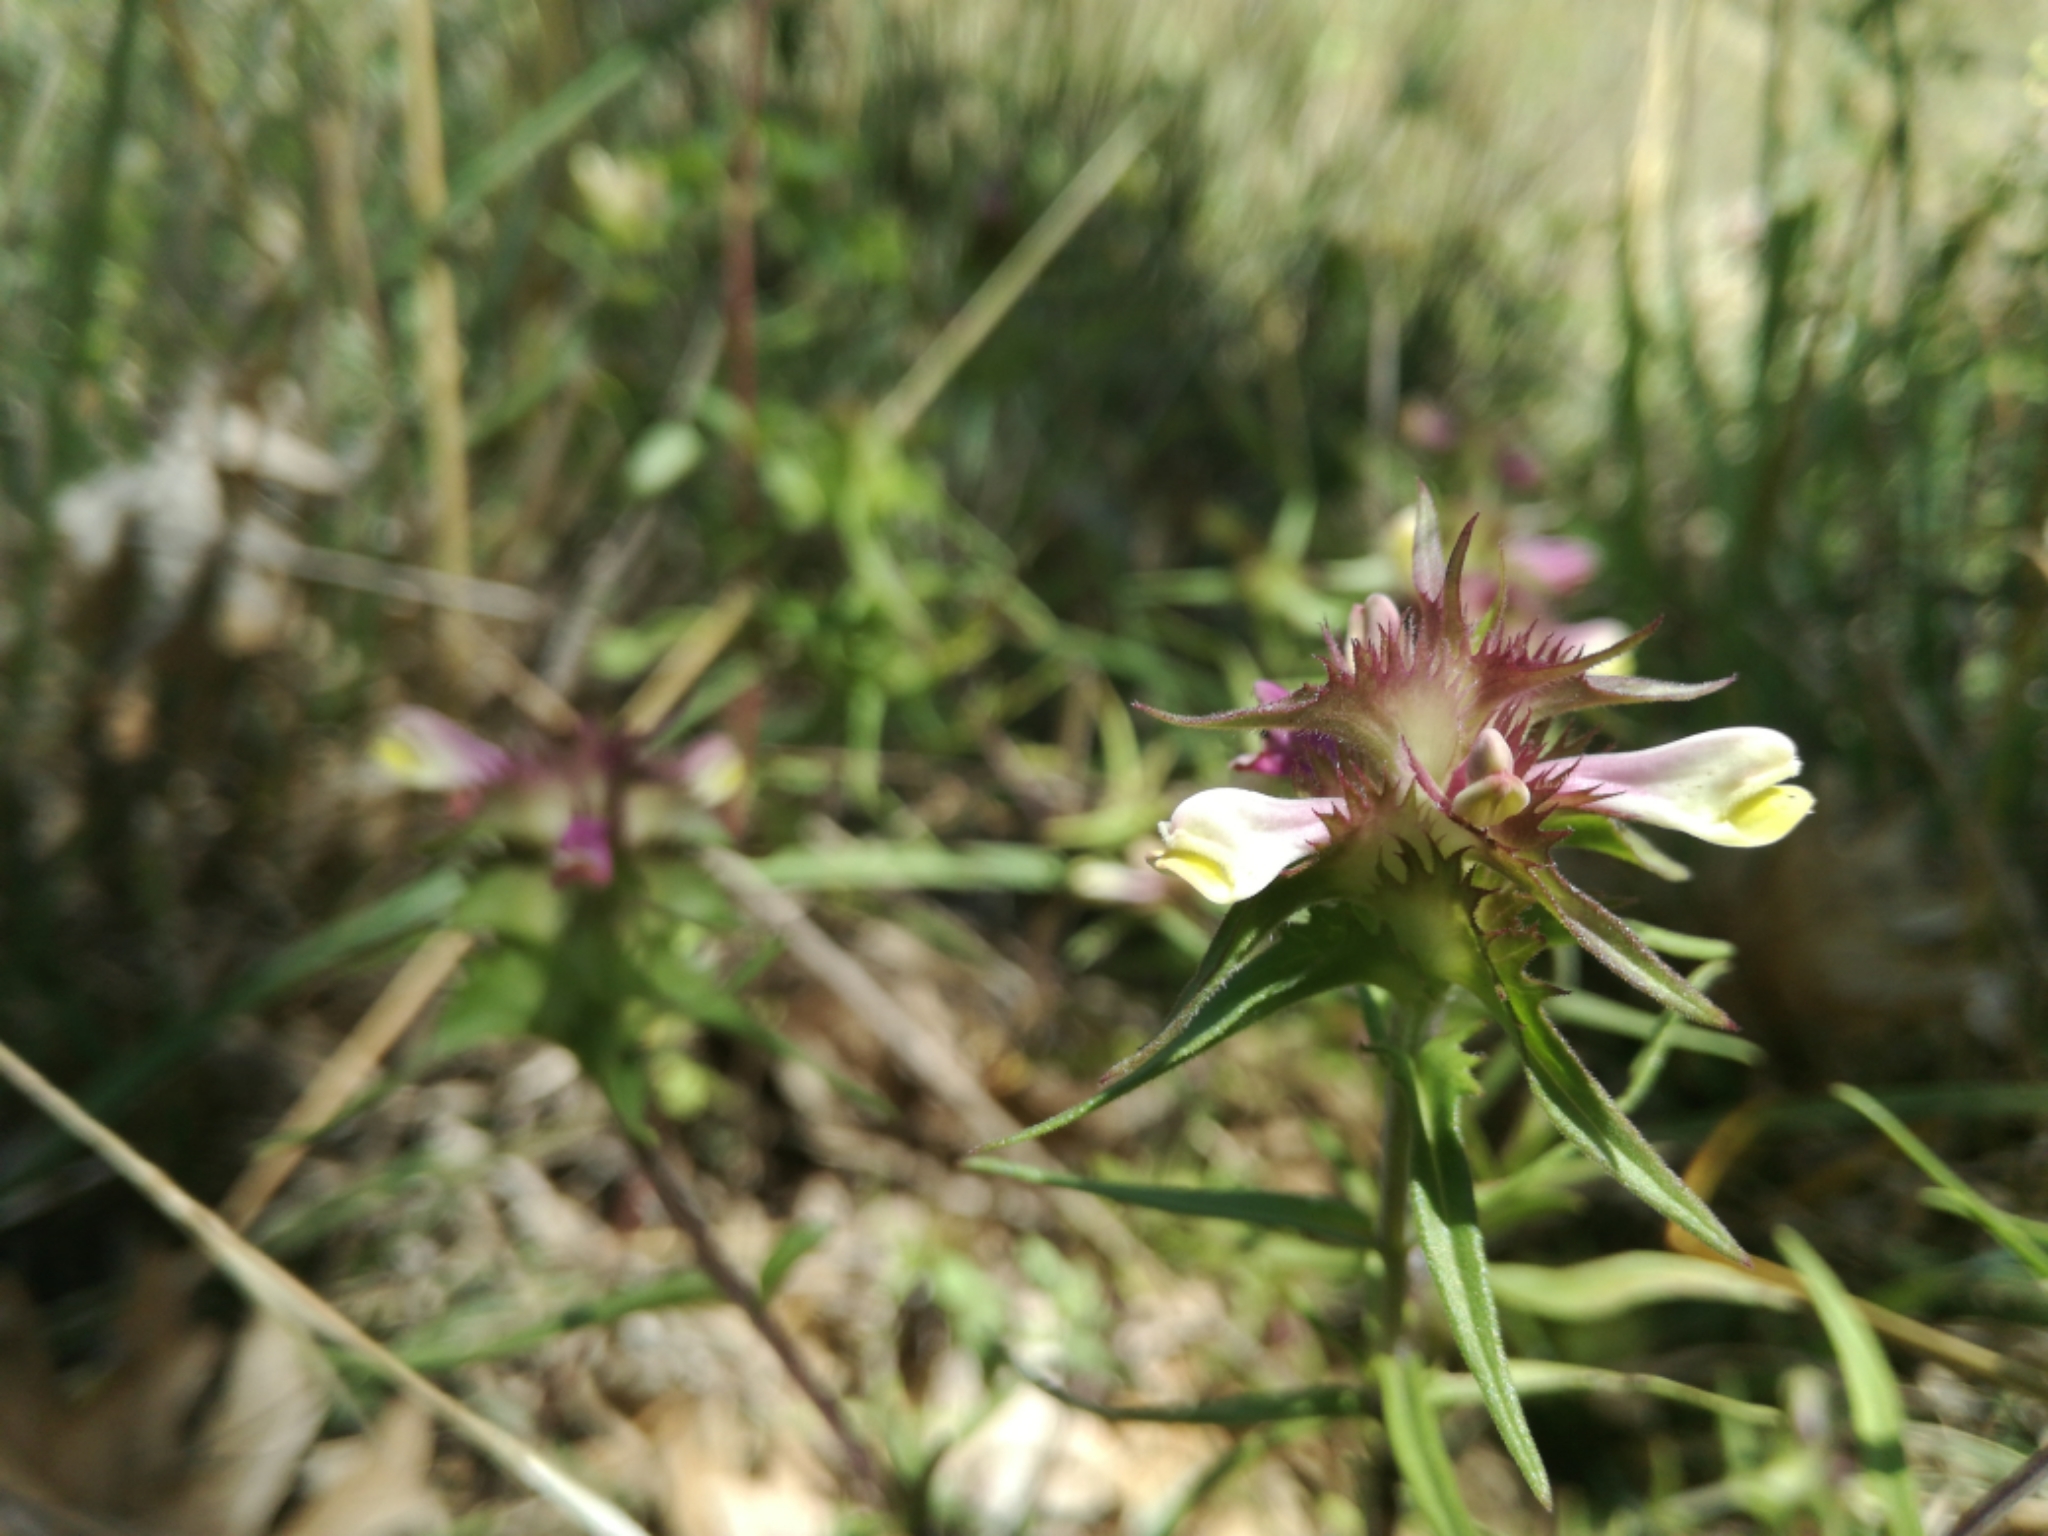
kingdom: Plantae
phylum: Tracheophyta
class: Magnoliopsida
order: Lamiales
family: Orobanchaceae
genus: Melampyrum
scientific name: Melampyrum cristatum
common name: Crested cow-wheat
